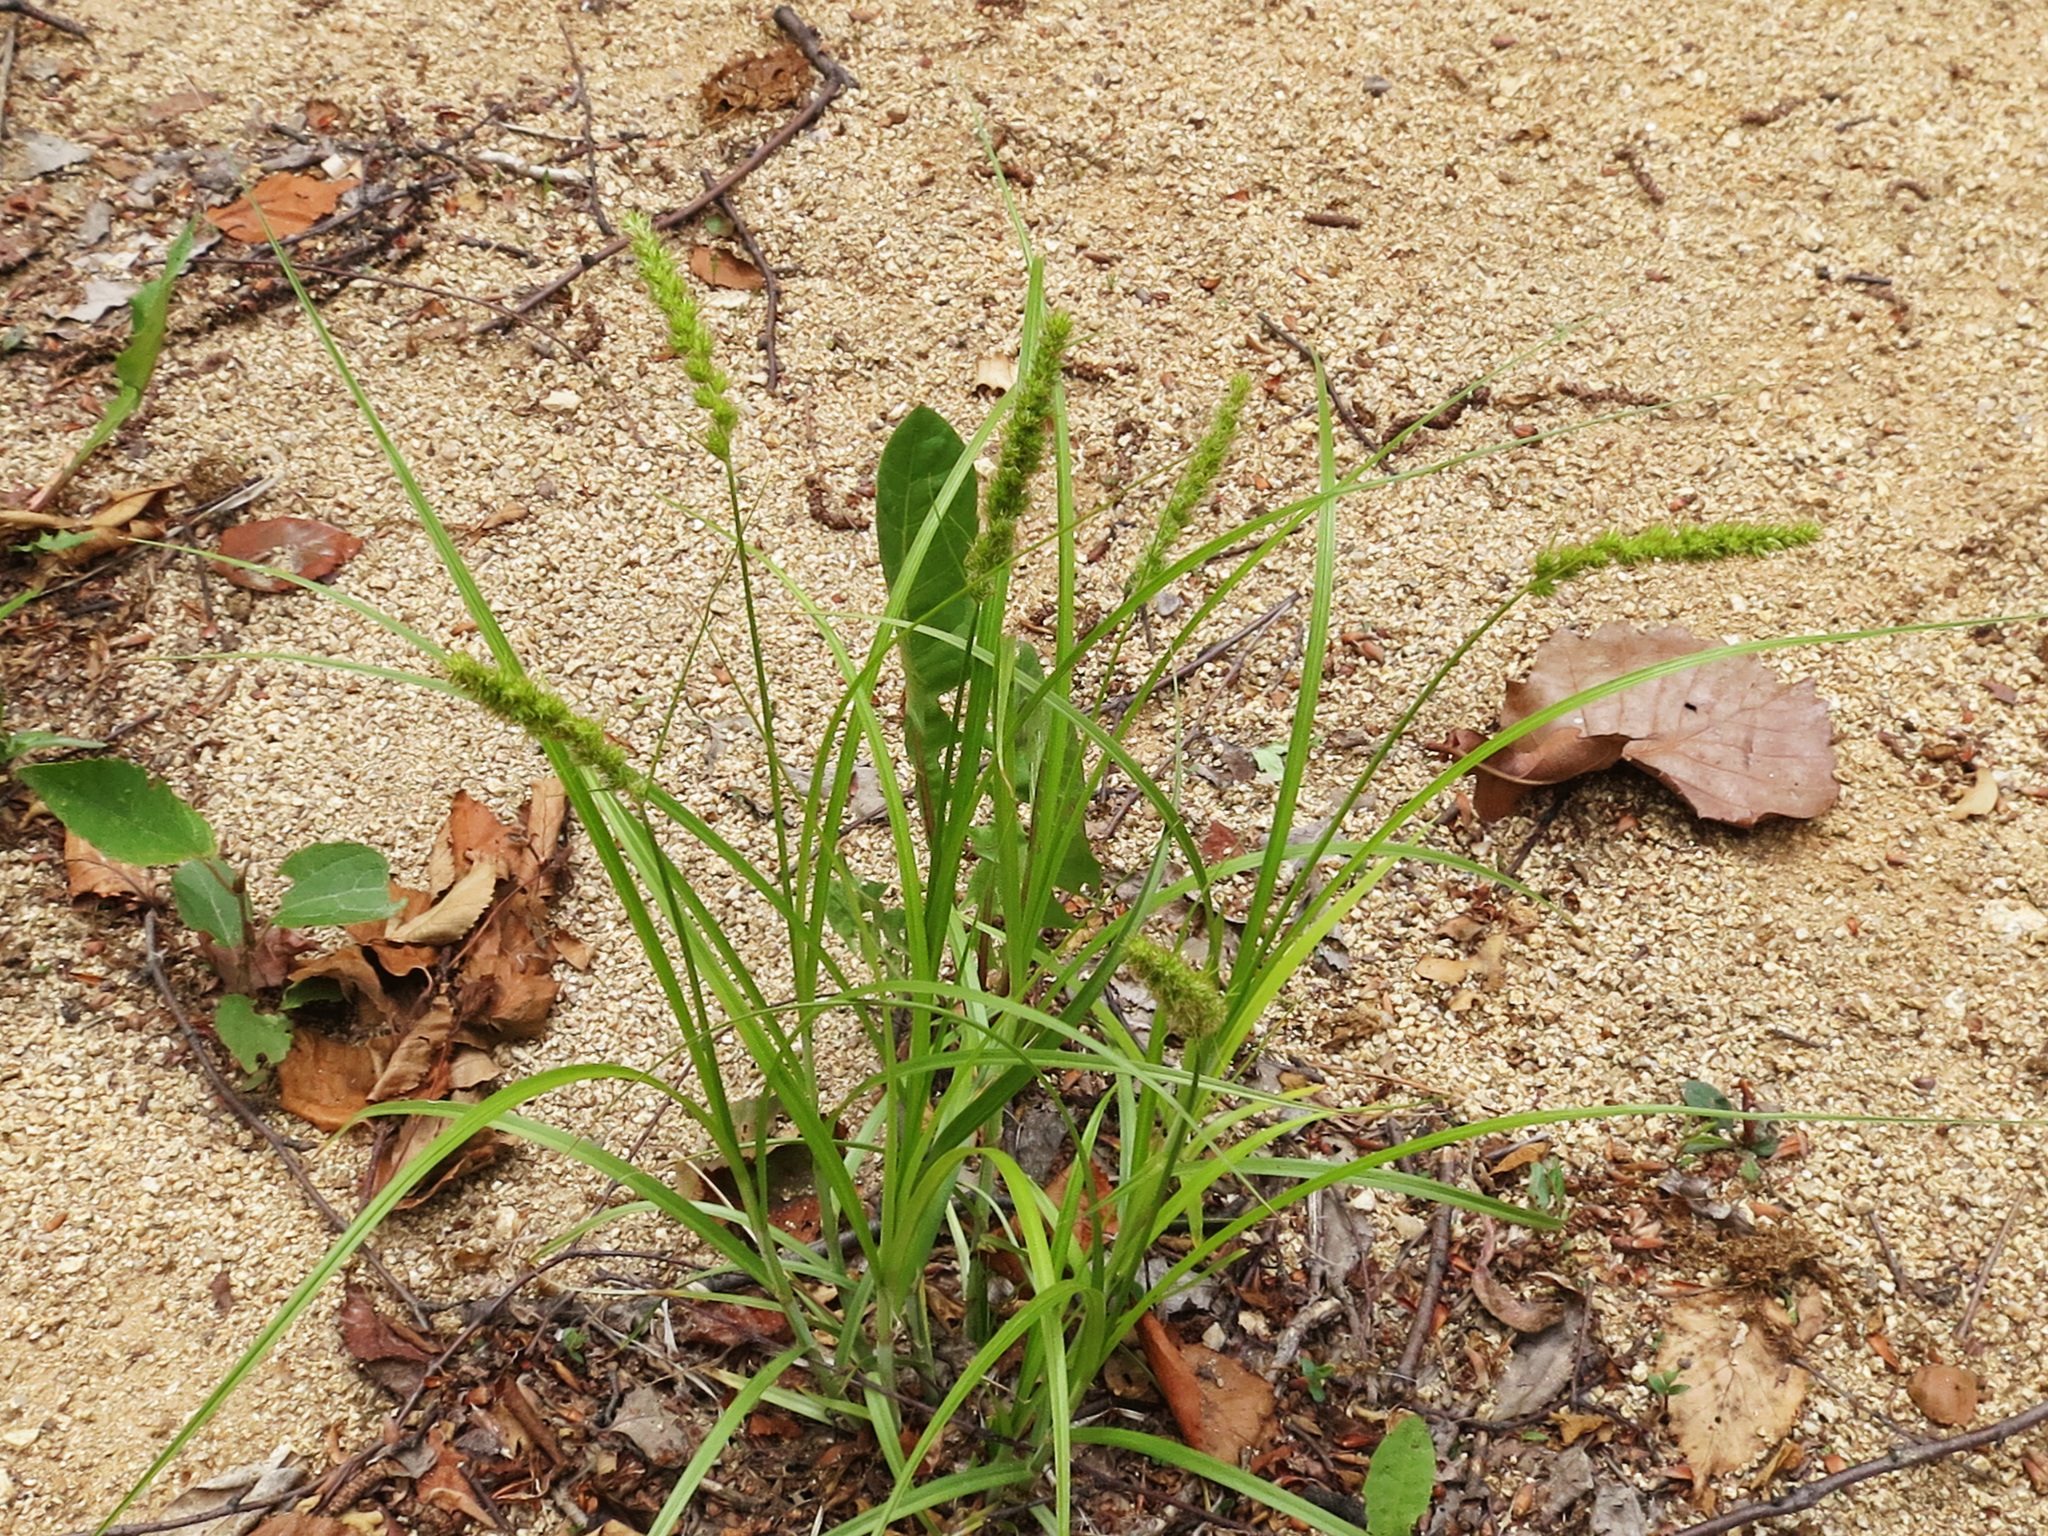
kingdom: Plantae
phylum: Tracheophyta
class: Liliopsida
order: Poales
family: Cyperaceae
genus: Carex
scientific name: Carex leiorhyncha
